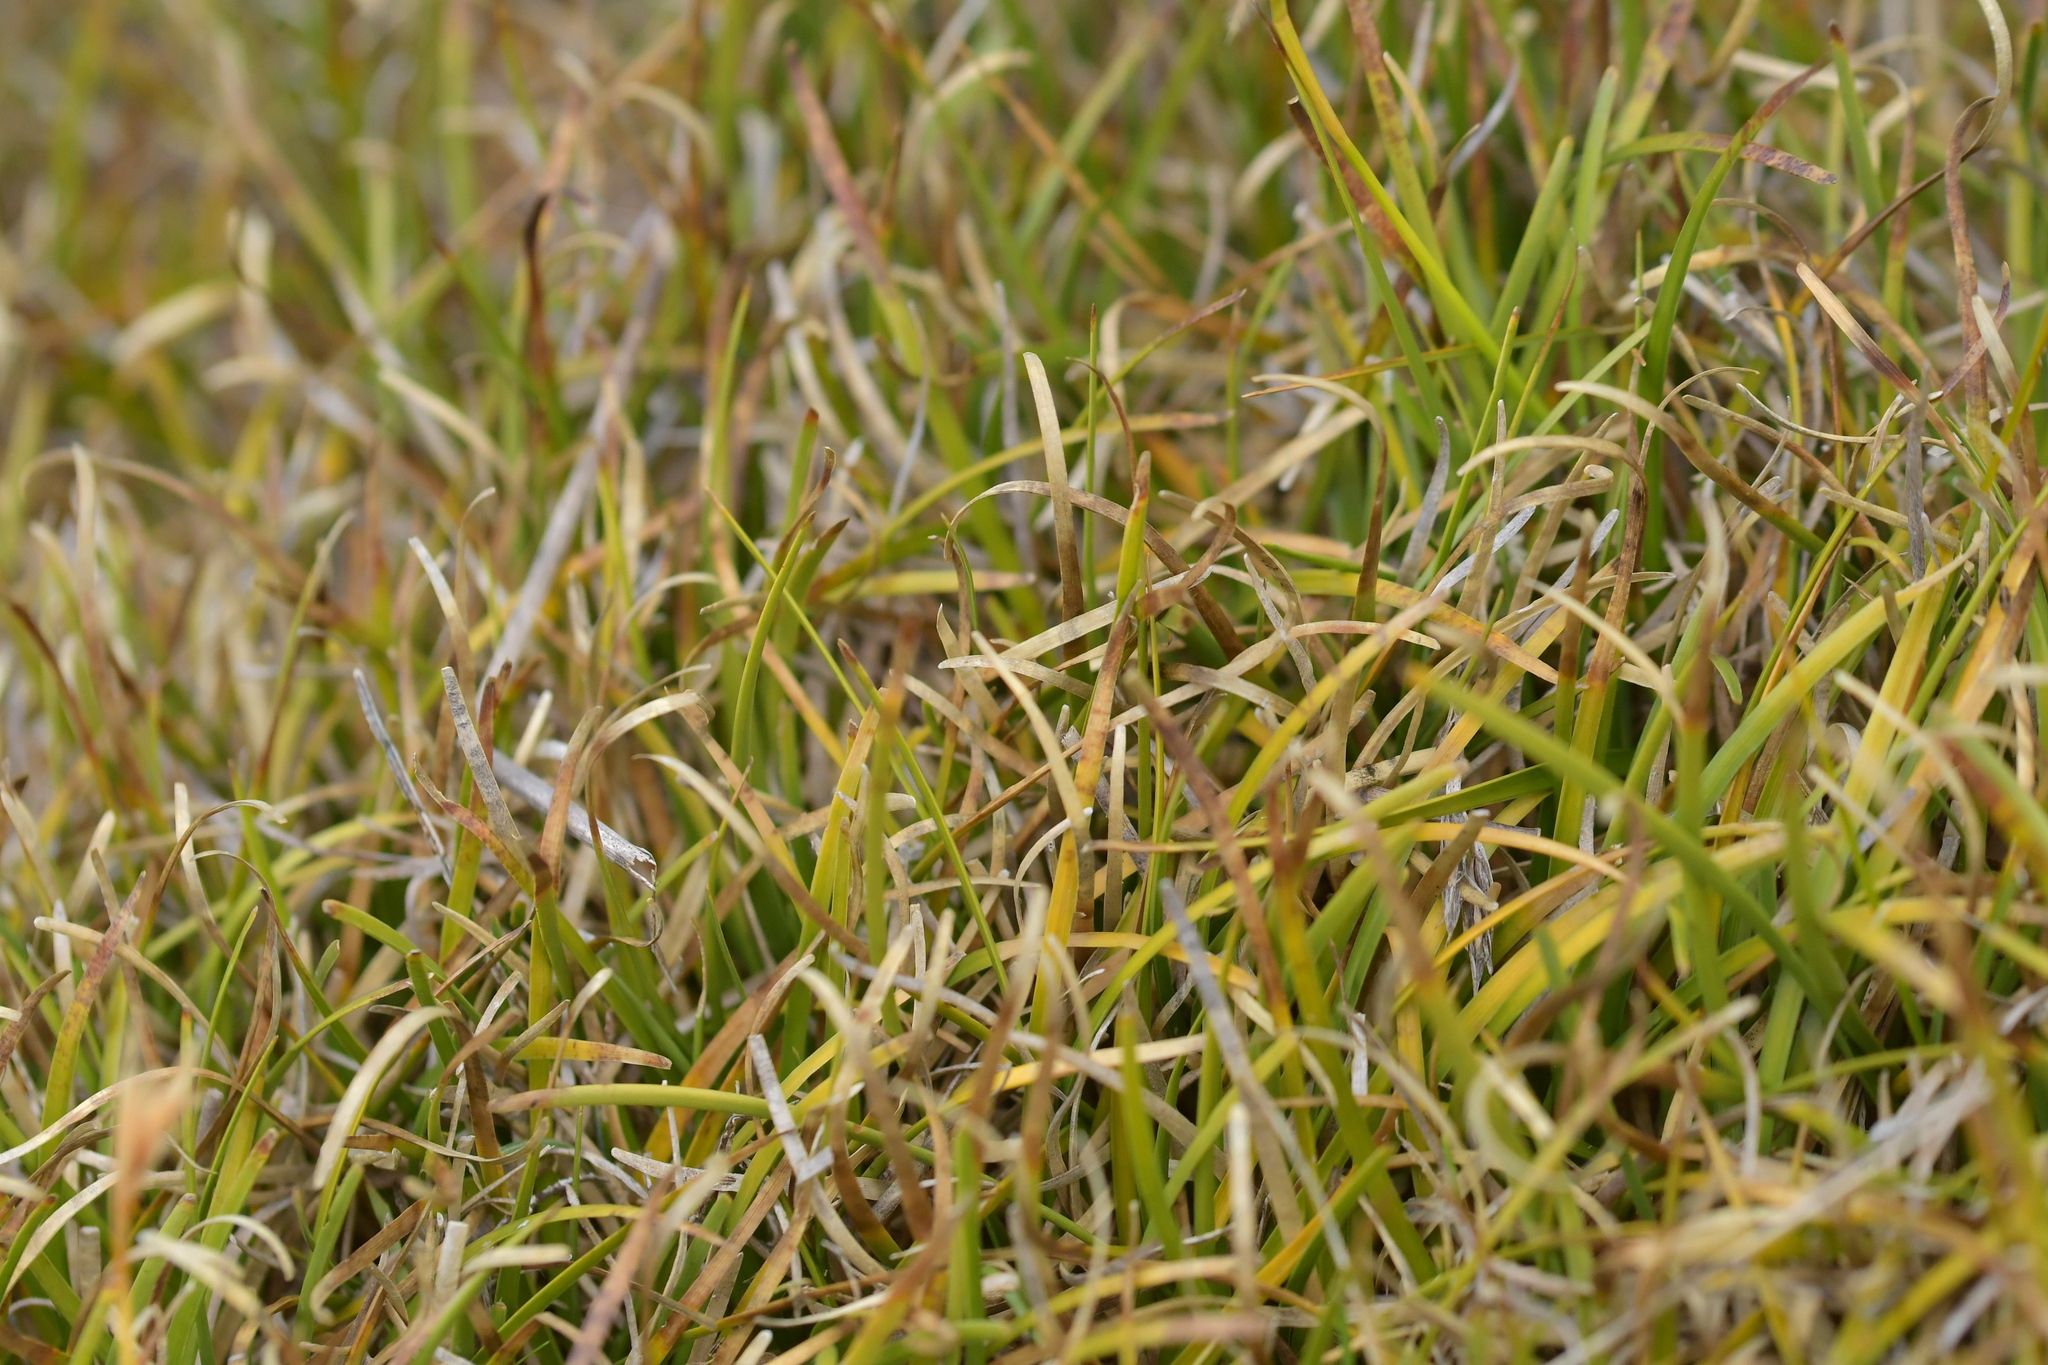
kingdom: Plantae
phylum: Tracheophyta
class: Liliopsida
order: Poales
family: Cyperaceae
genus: Carpha
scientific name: Carpha alpina
